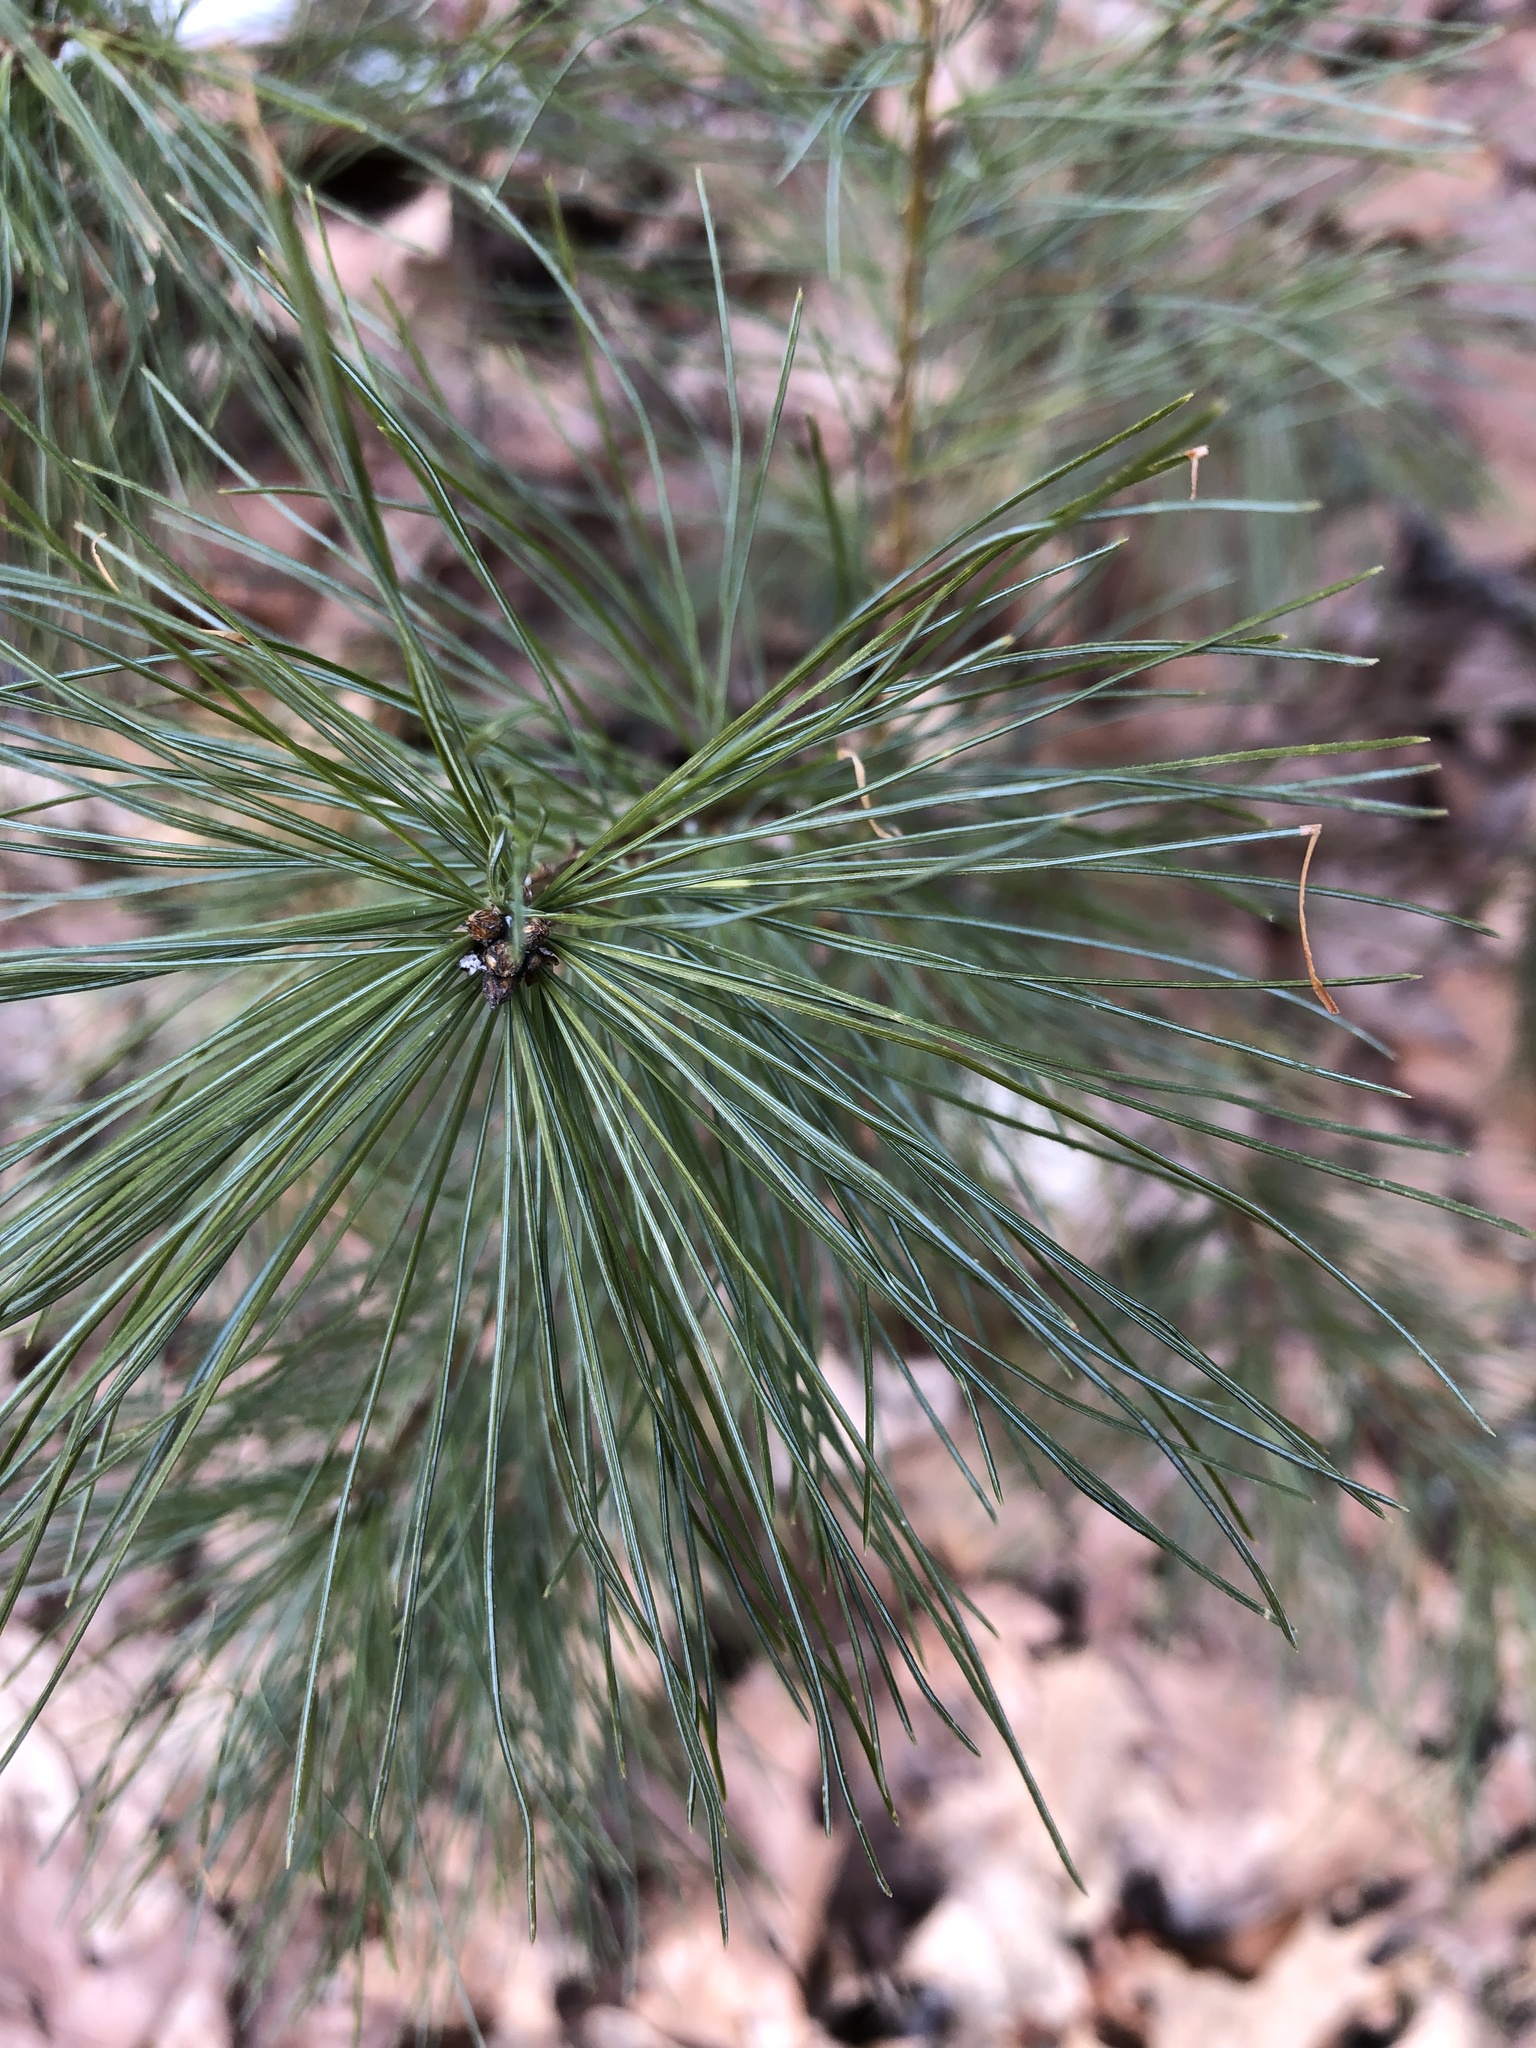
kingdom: Plantae
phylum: Tracheophyta
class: Pinopsida
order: Pinales
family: Pinaceae
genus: Pinus
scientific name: Pinus strobus
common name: Weymouth pine
